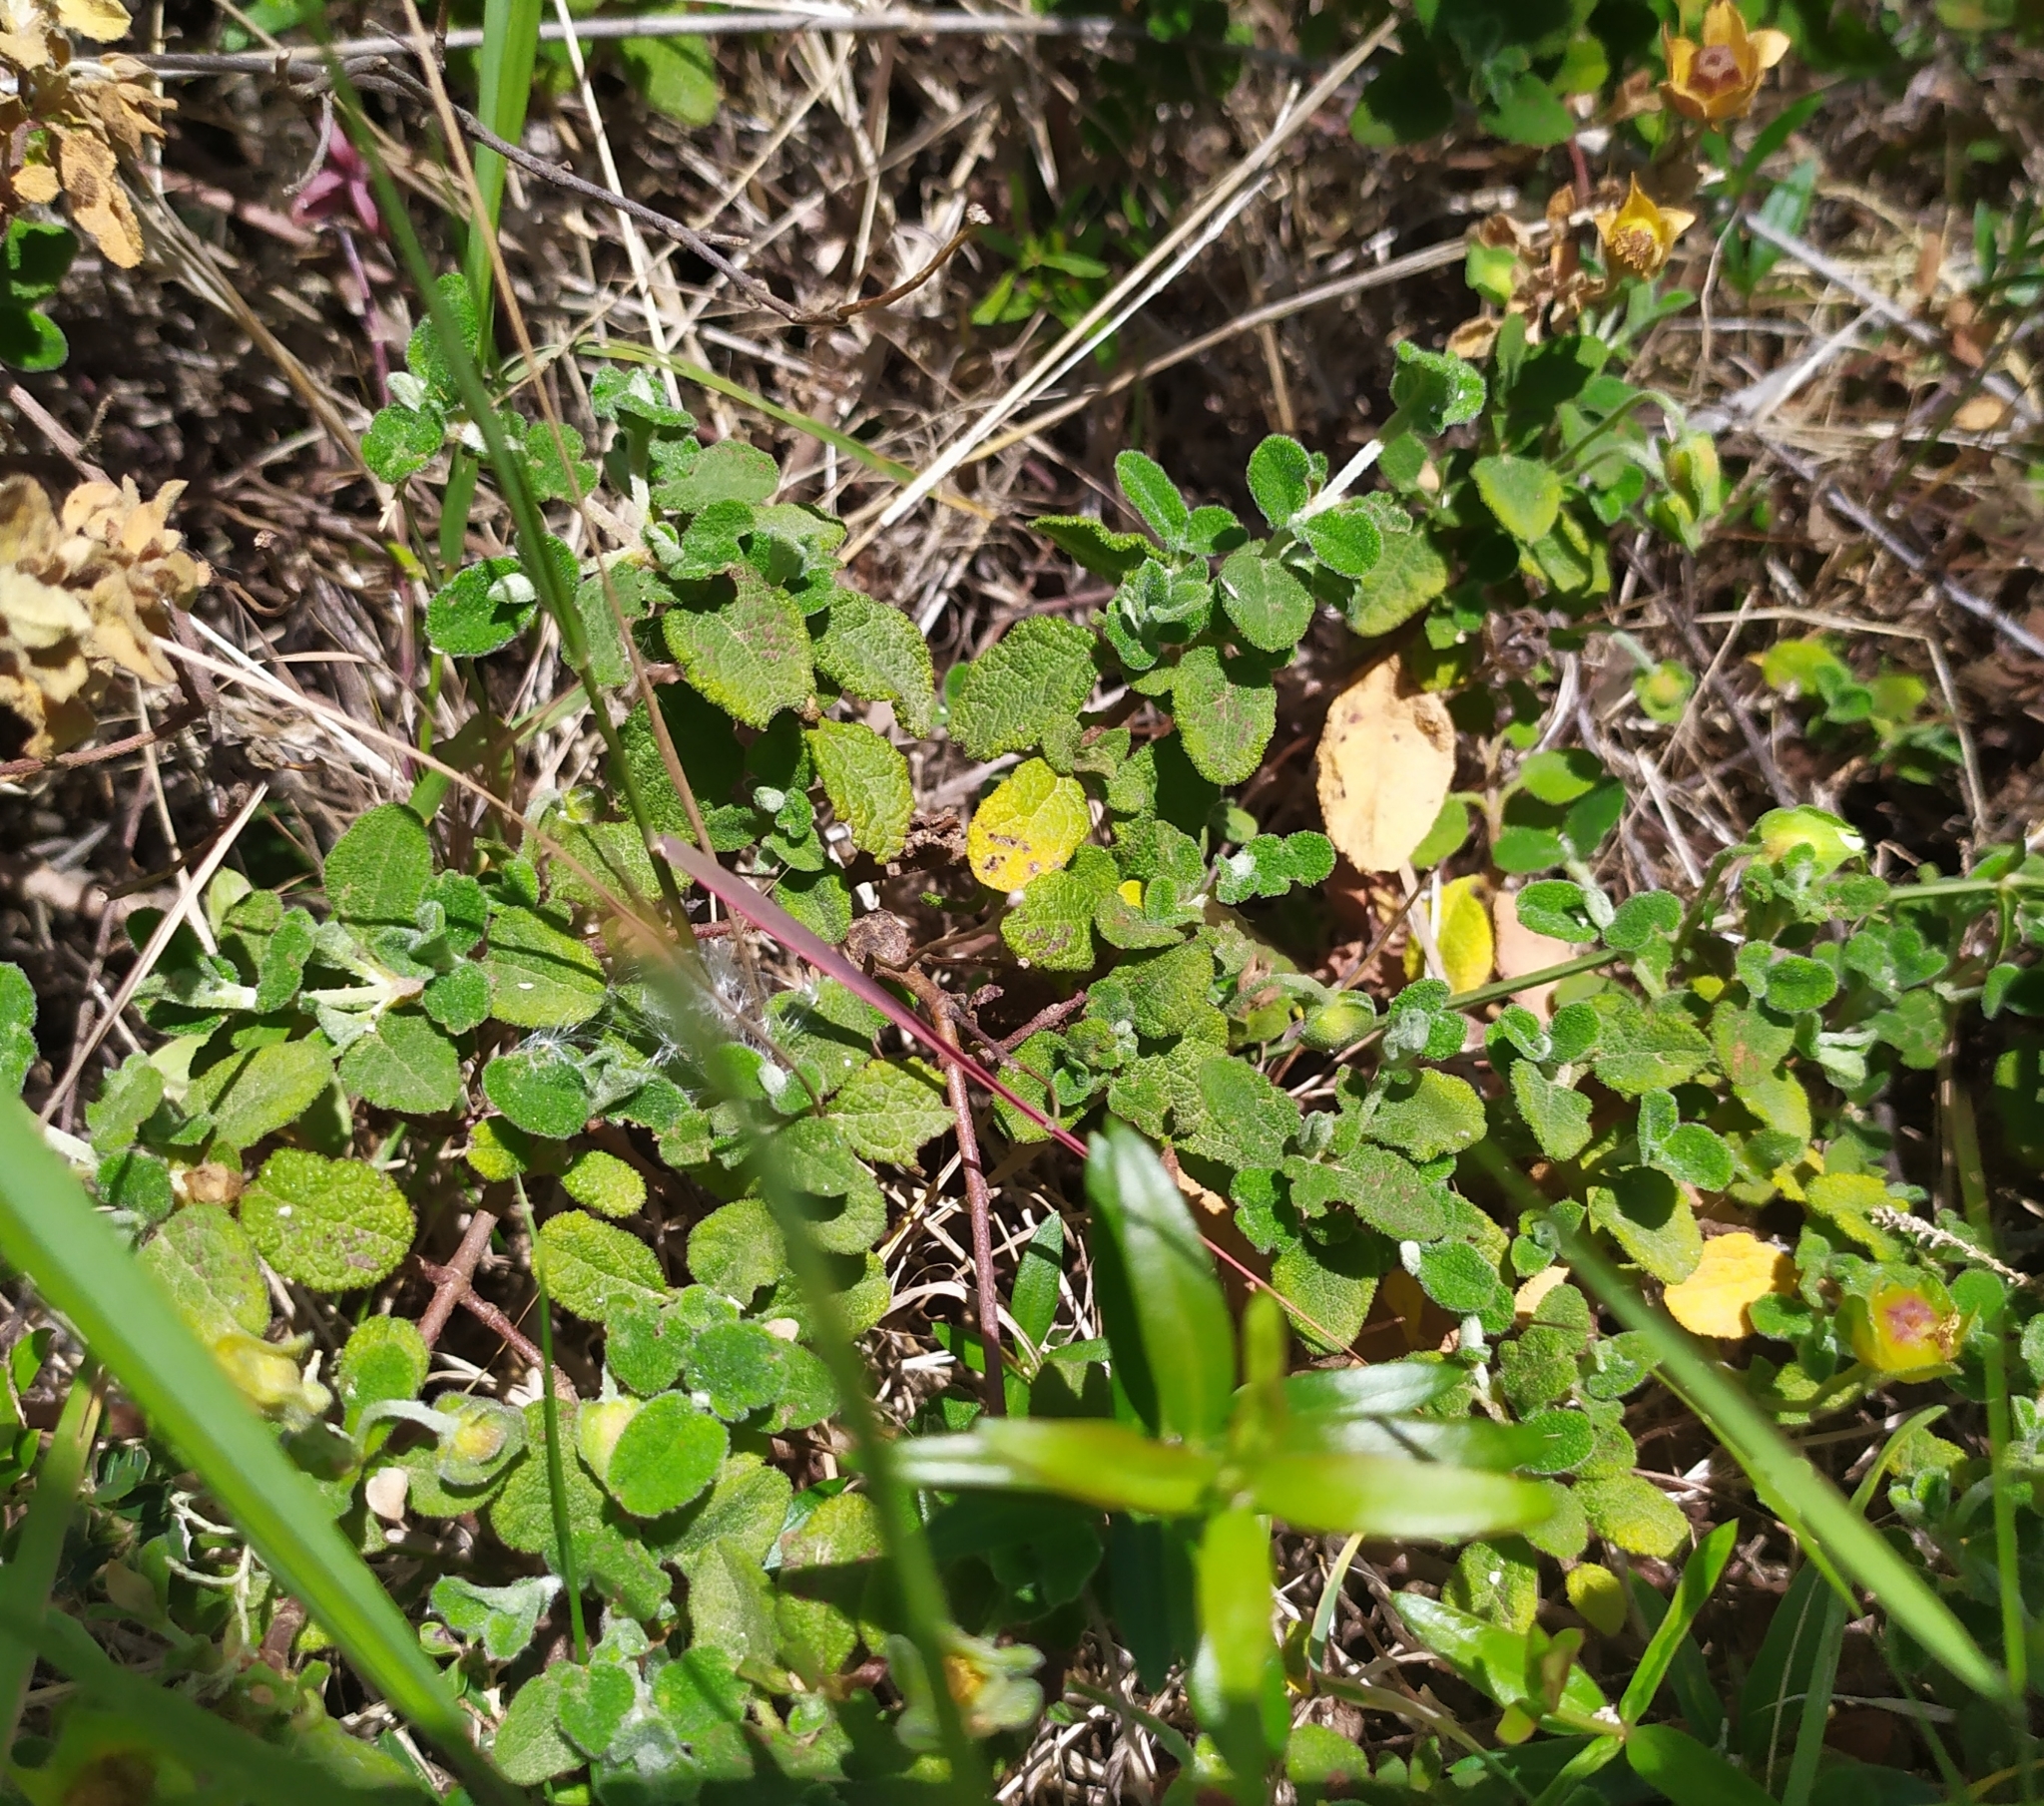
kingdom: Plantae
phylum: Tracheophyta
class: Magnoliopsida
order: Malvales
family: Cistaceae
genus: Cistus
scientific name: Cistus salviifolius
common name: Salvia cistus
